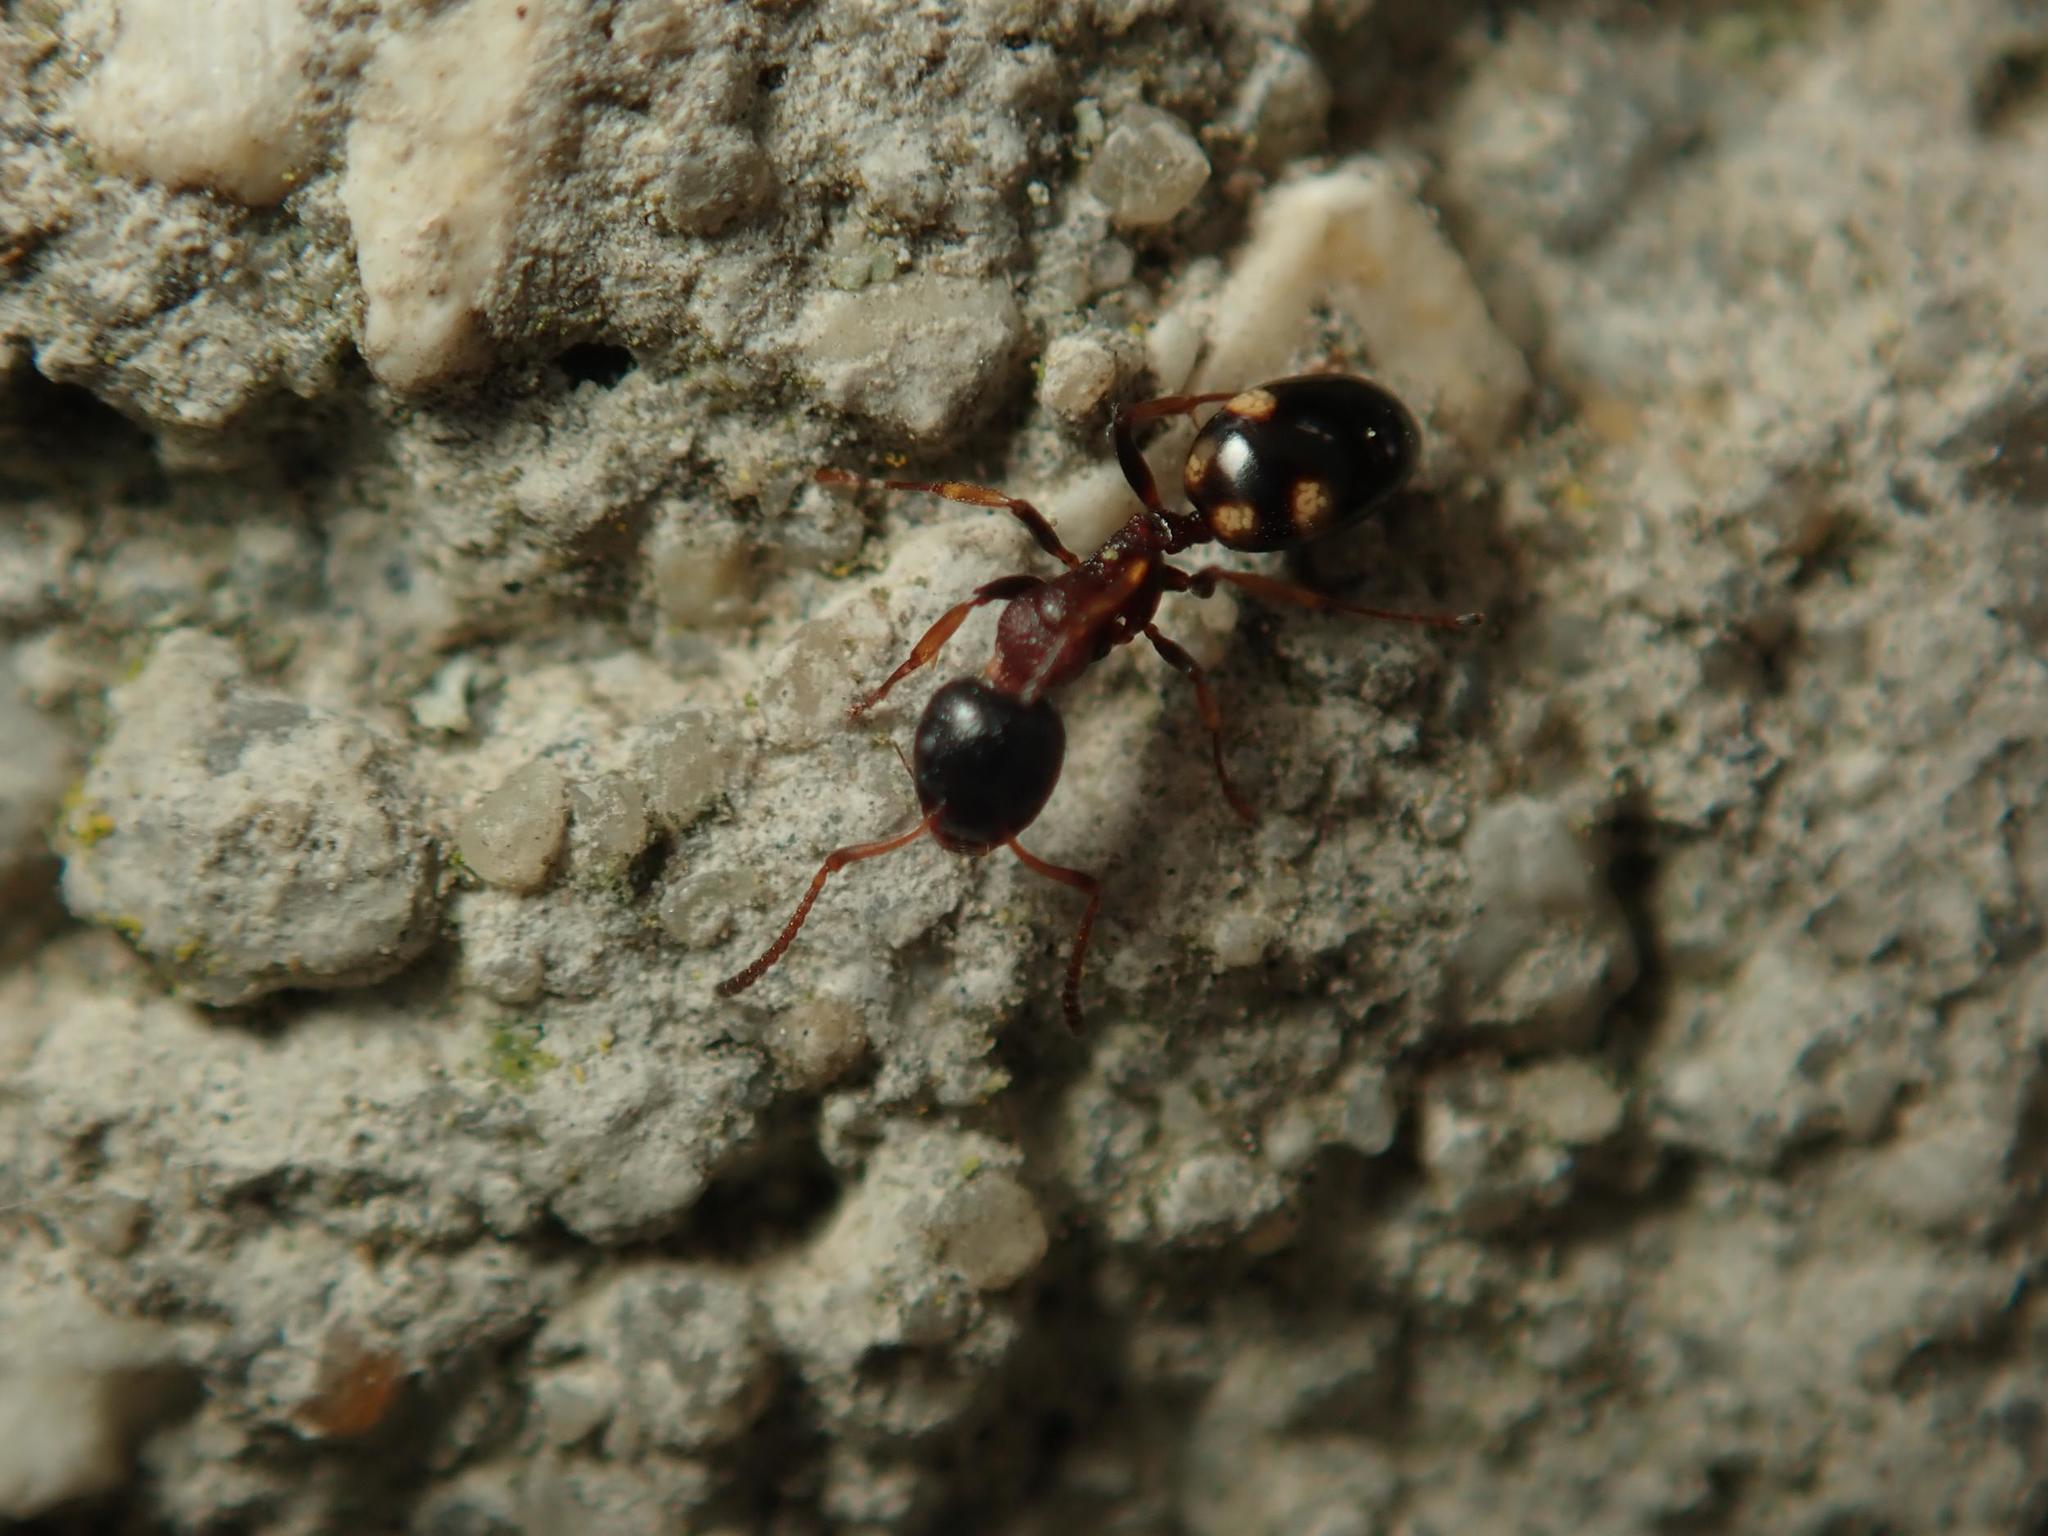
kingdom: Animalia
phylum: Arthropoda
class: Insecta
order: Hymenoptera
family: Formicidae
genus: Dolichoderus
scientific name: Dolichoderus quadripunctatus
